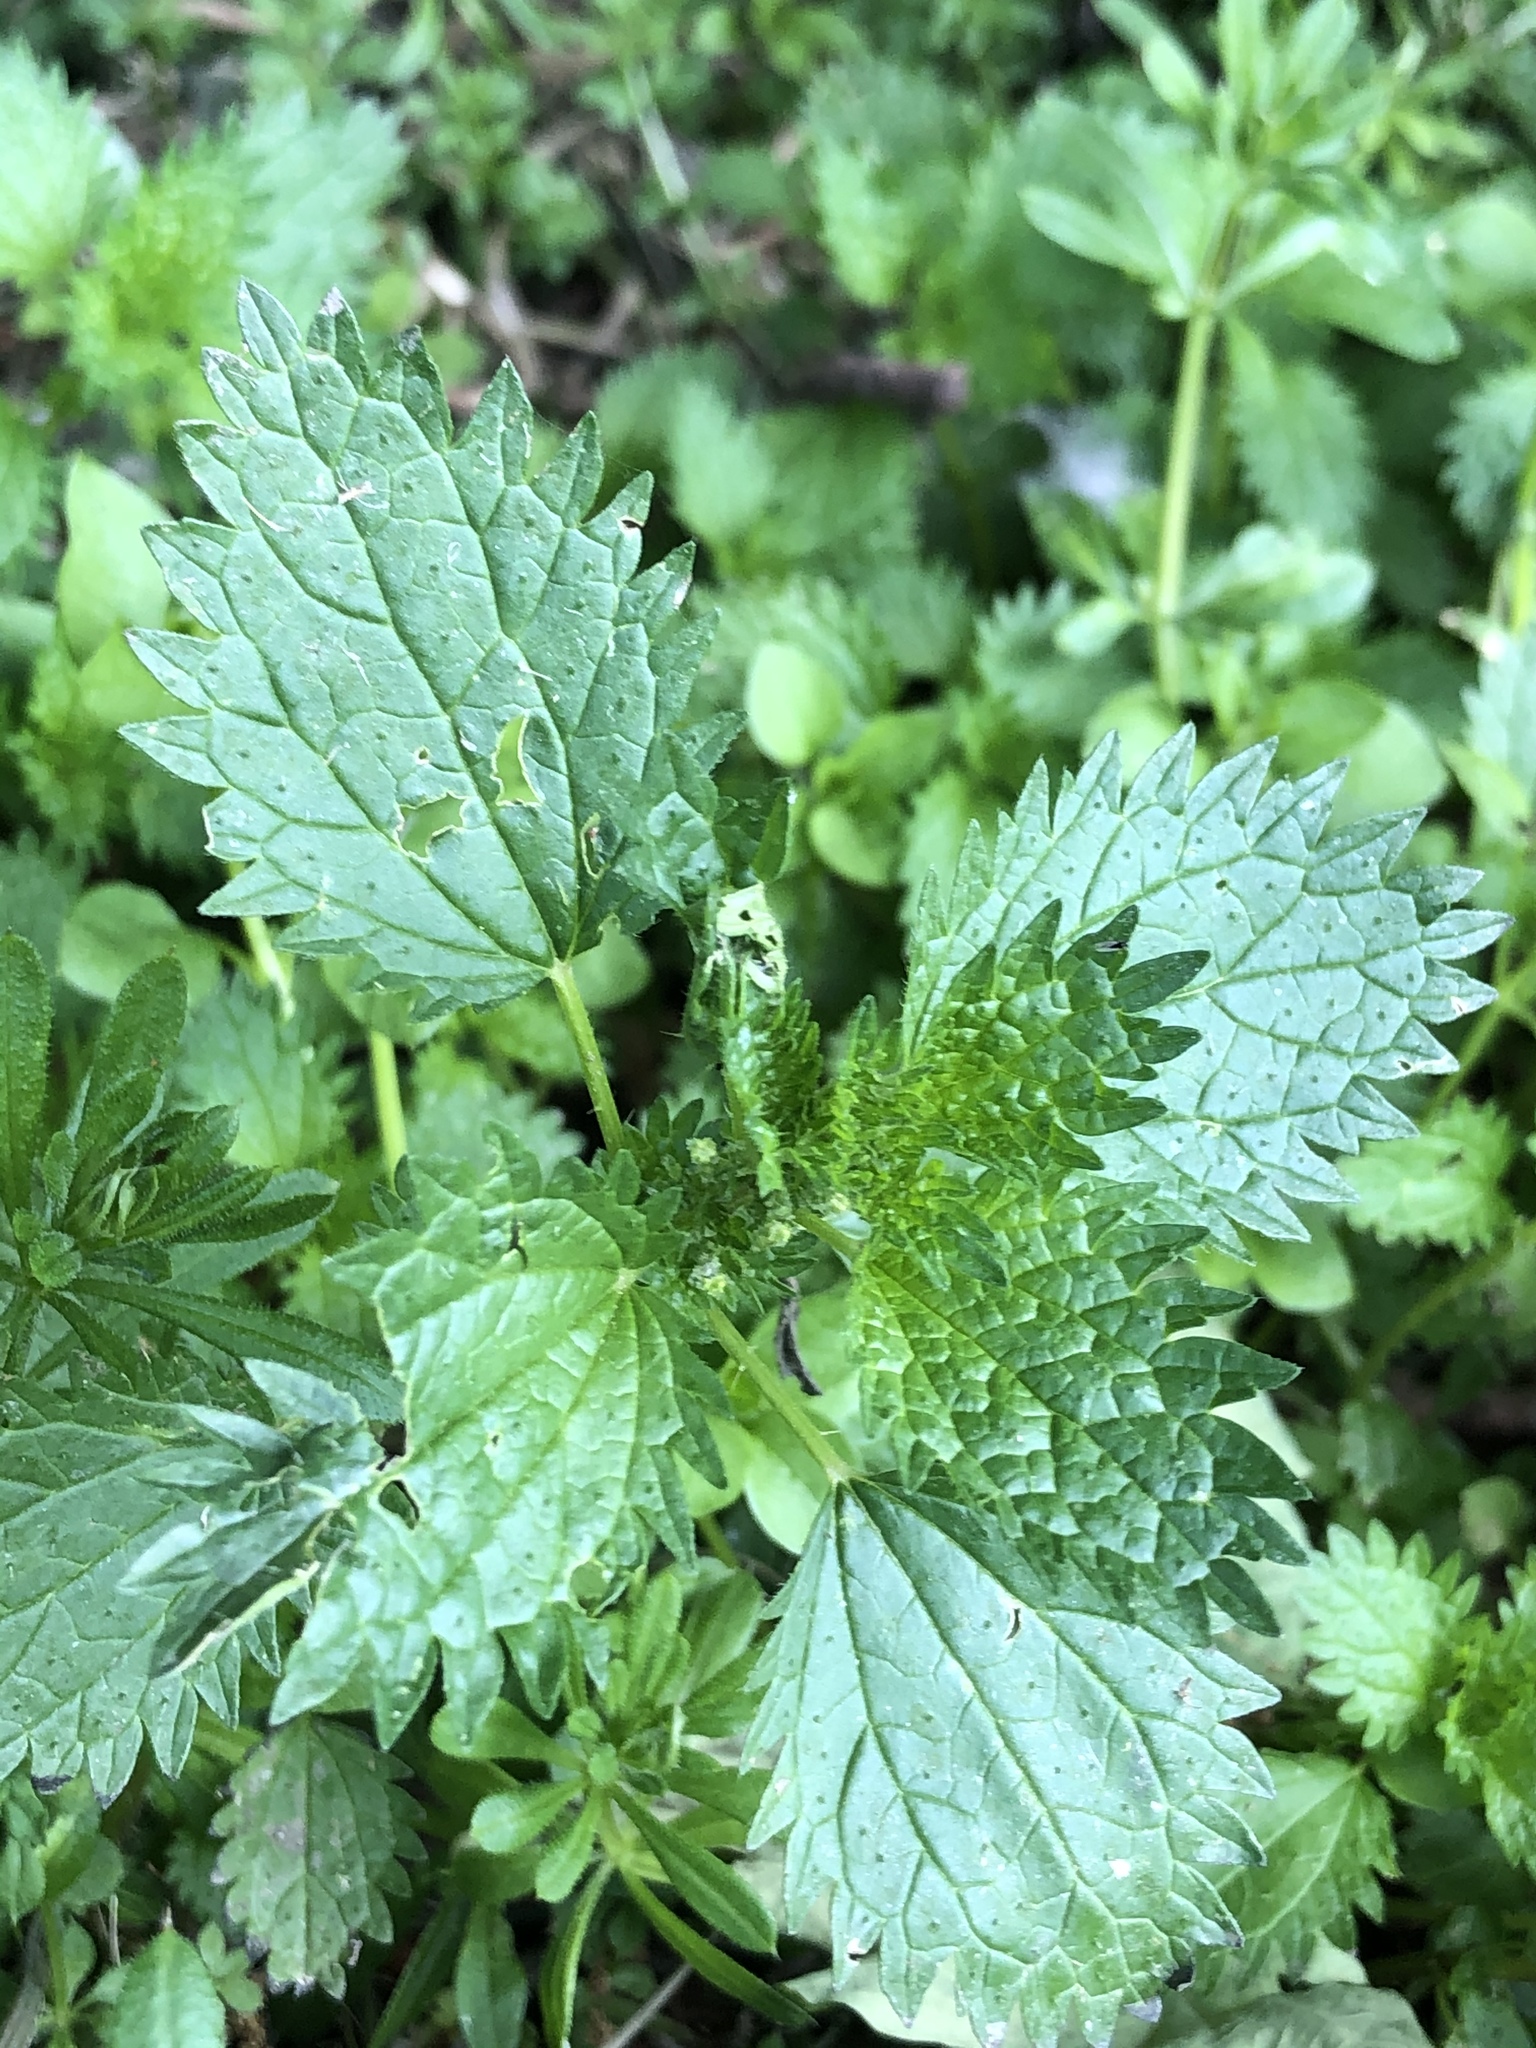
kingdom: Plantae
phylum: Tracheophyta
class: Magnoliopsida
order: Rosales
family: Urticaceae
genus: Urtica
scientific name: Urtica urens
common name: Dwarf nettle
